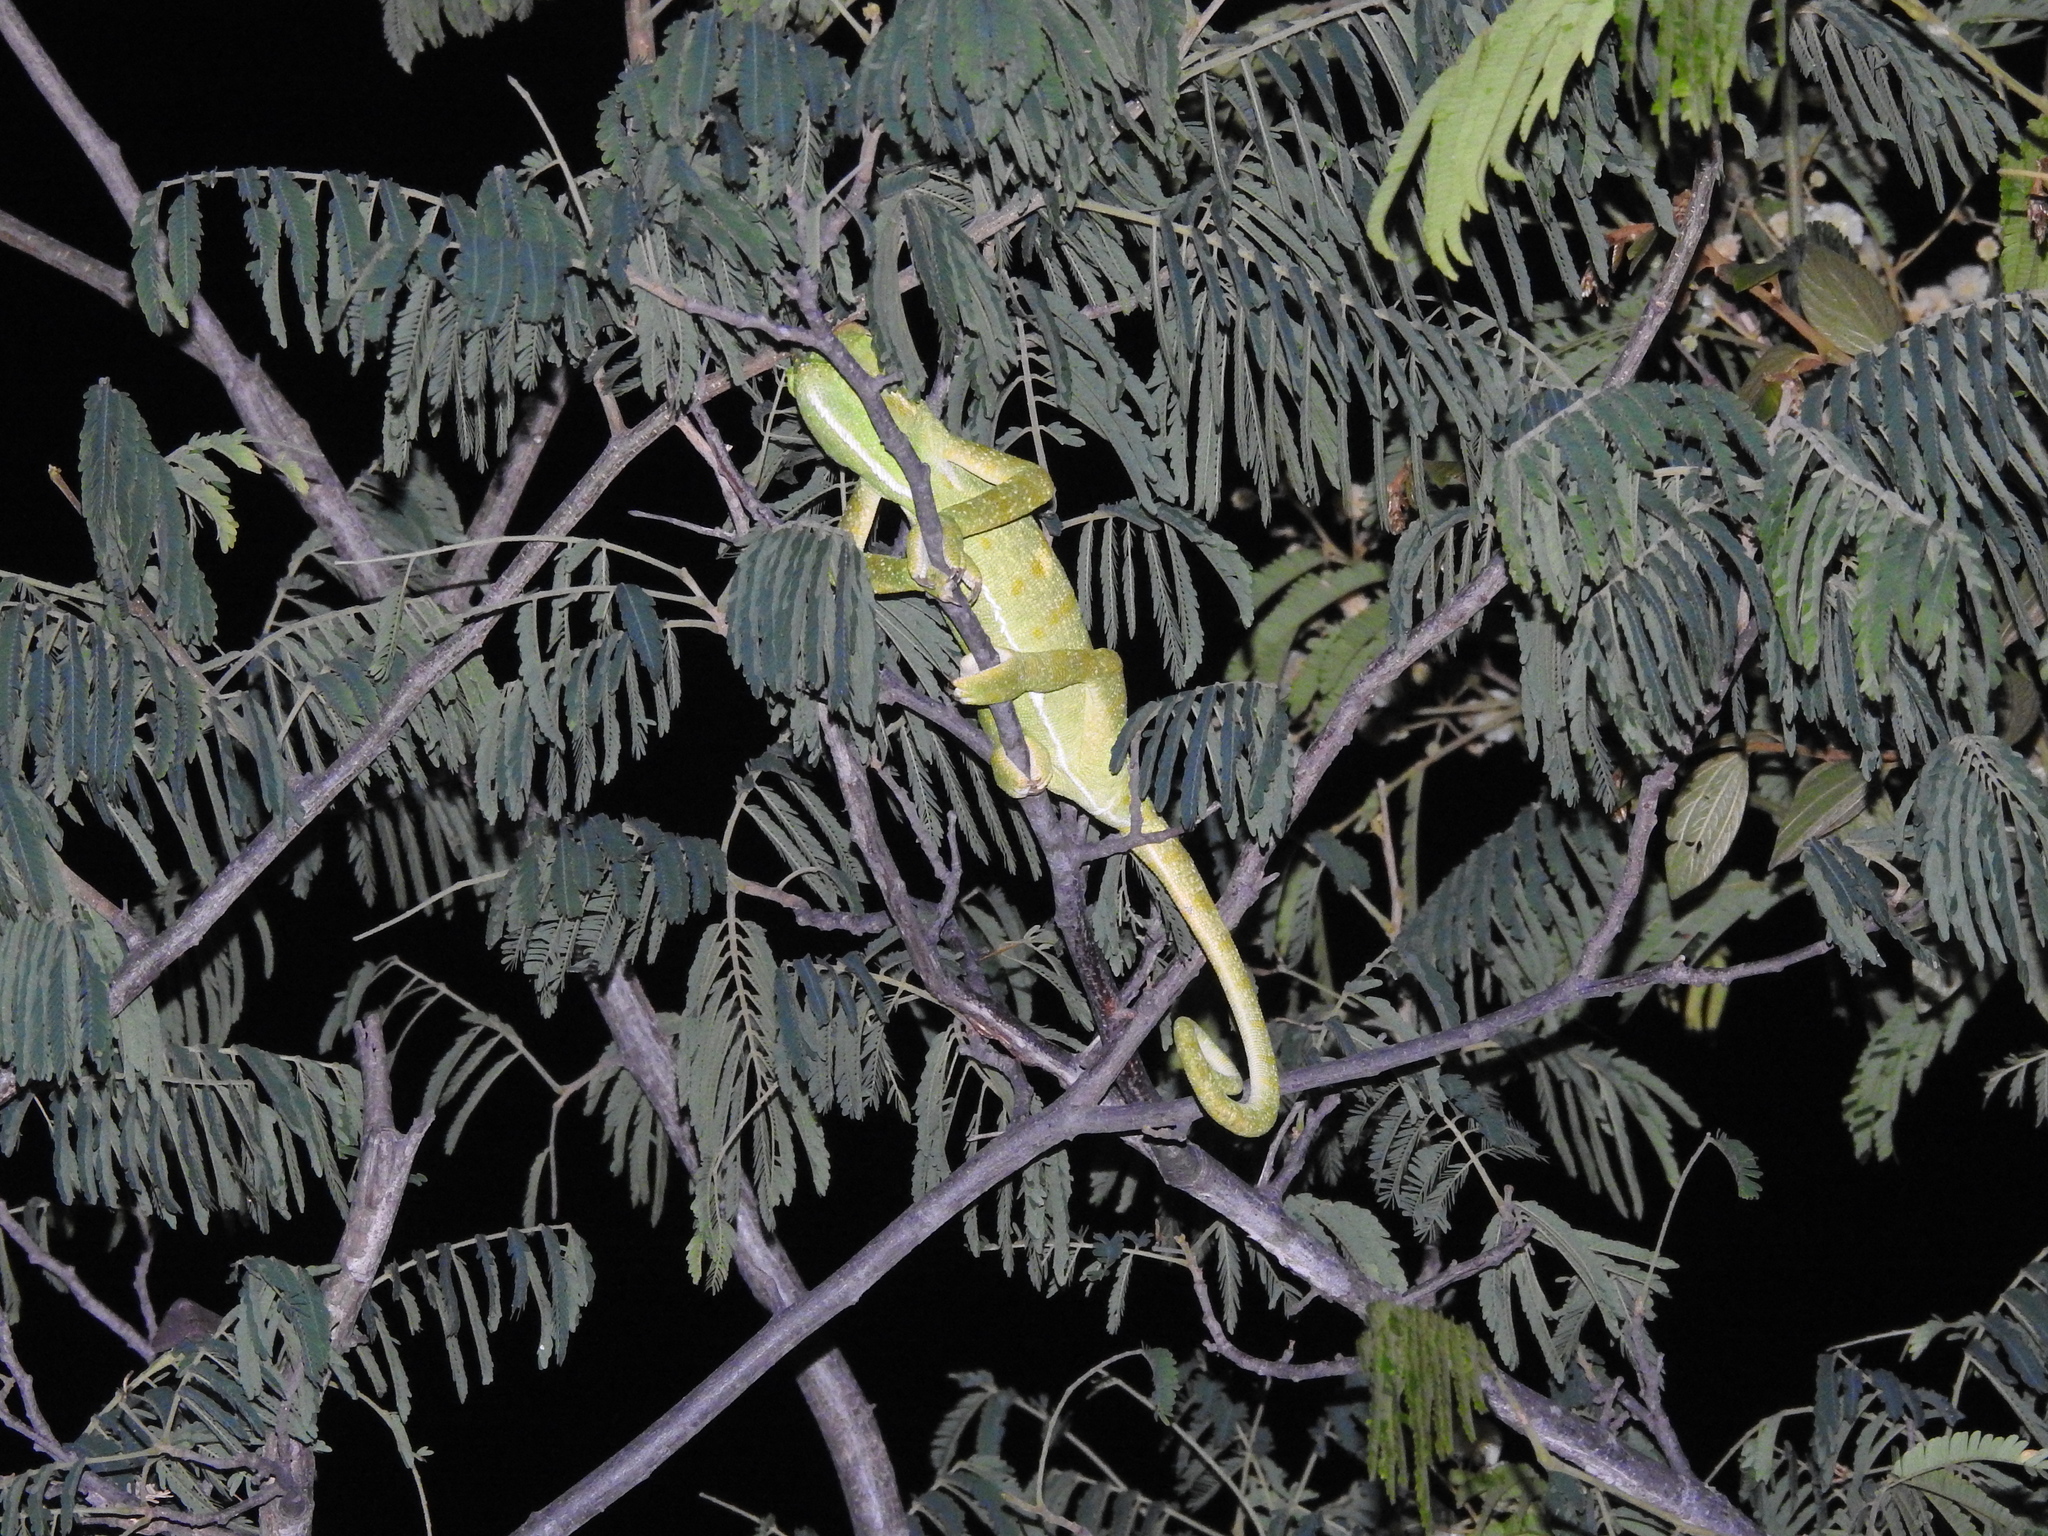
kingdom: Animalia
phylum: Chordata
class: Squamata
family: Chamaeleonidae
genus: Chamaeleo
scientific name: Chamaeleo zeylanicus
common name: Indian chameleon
